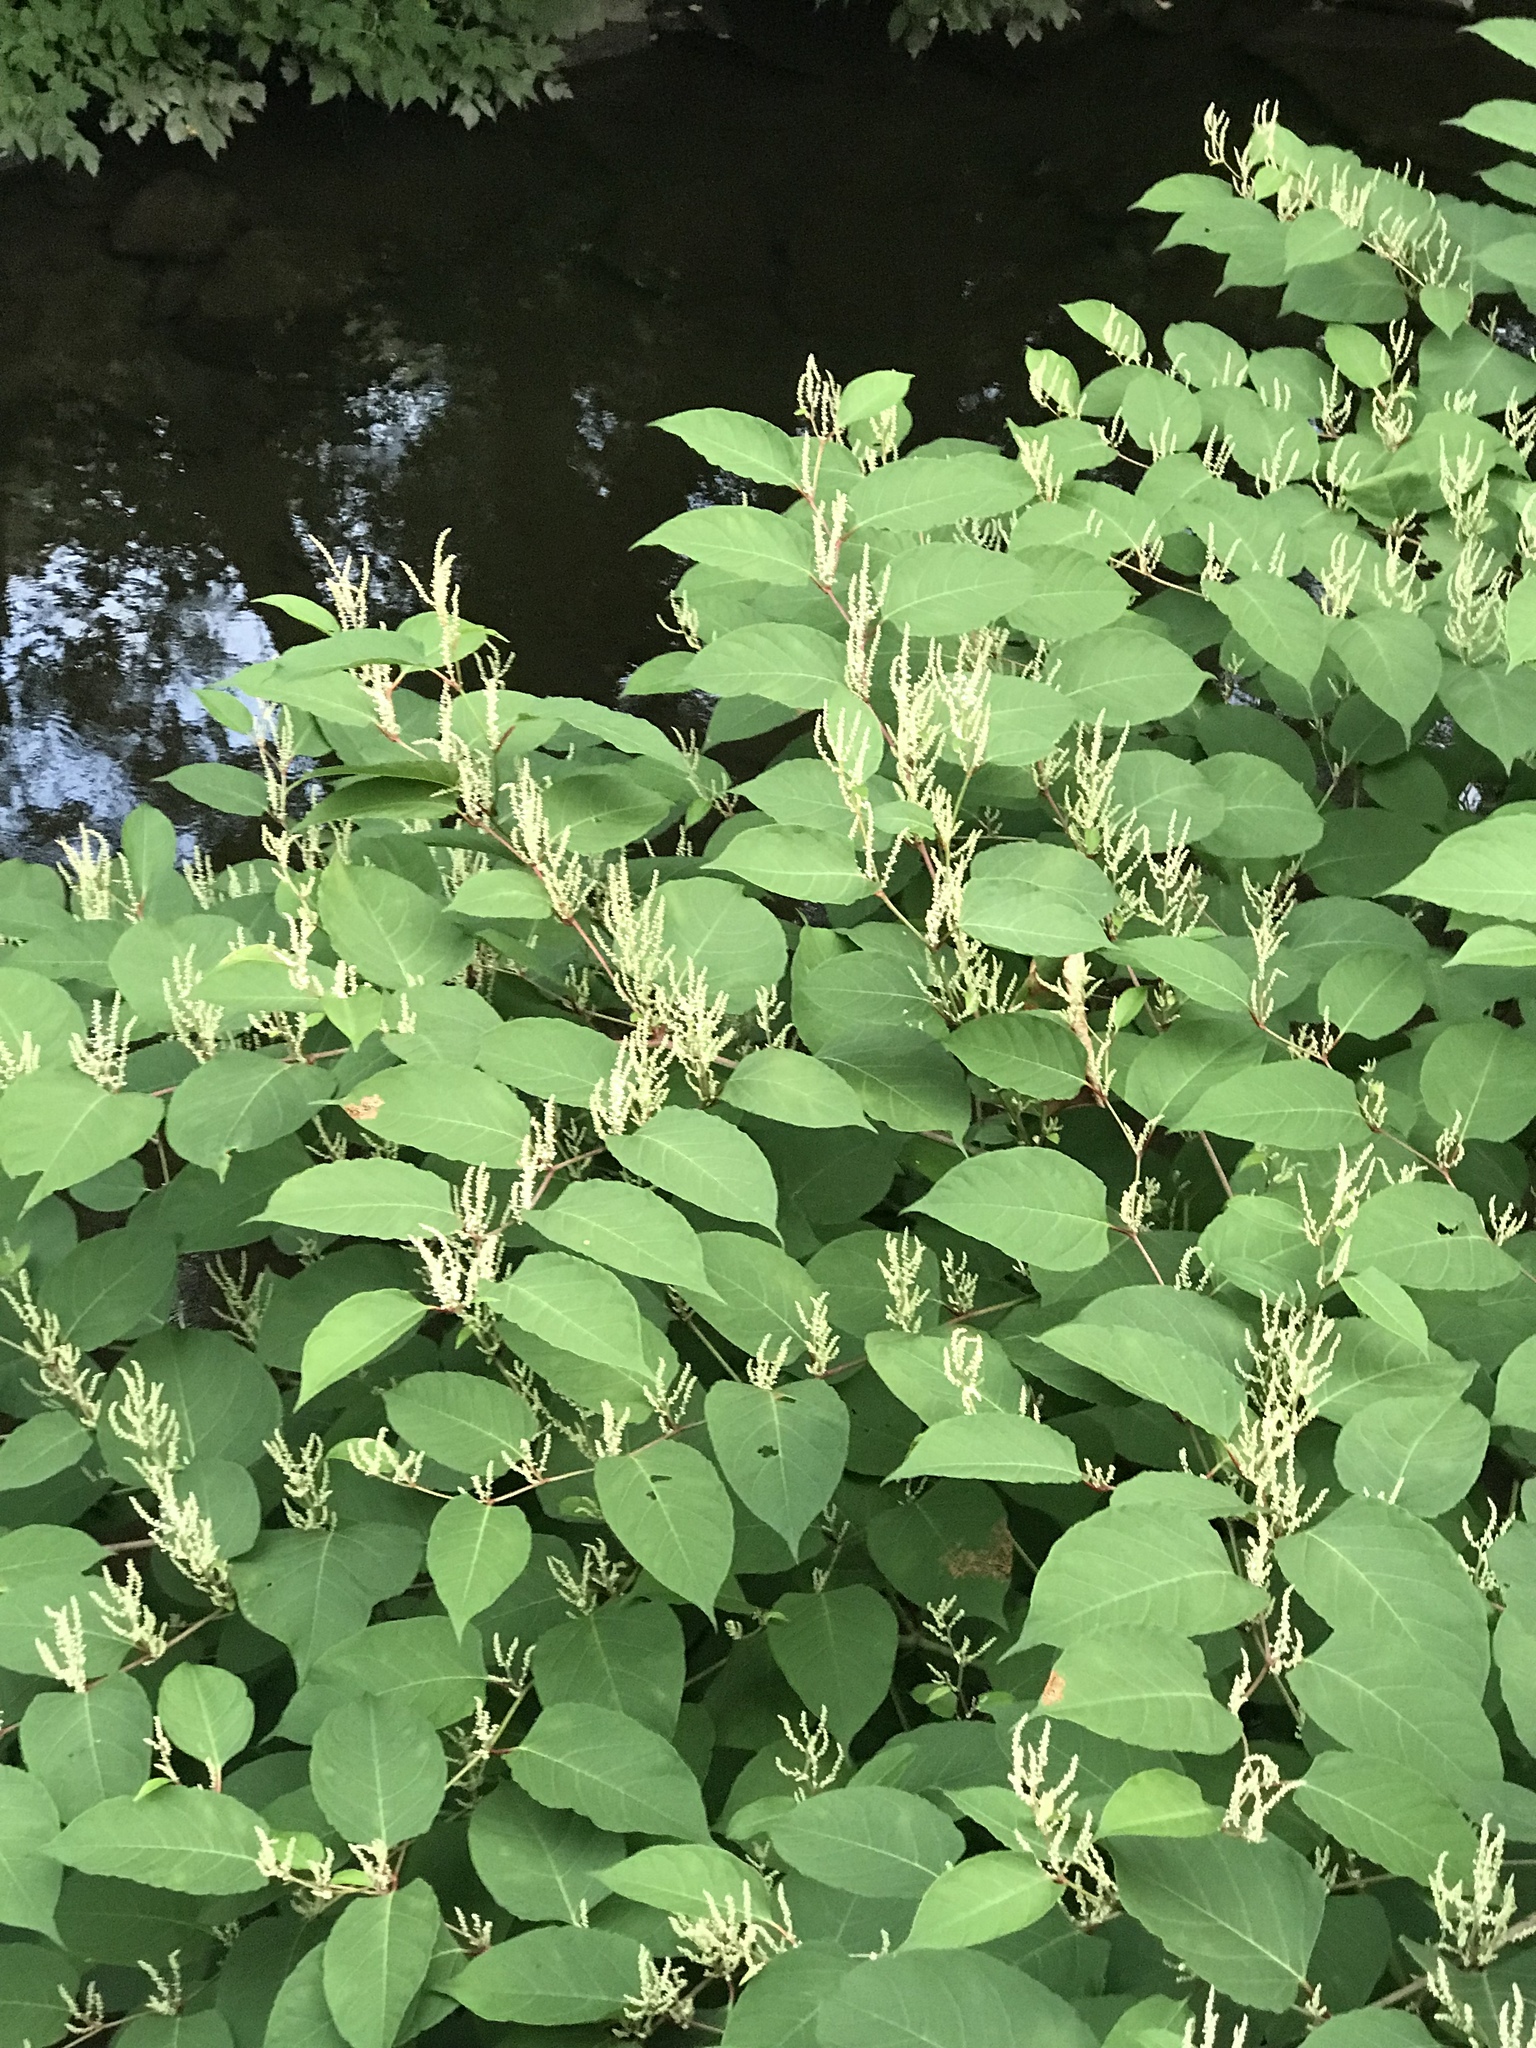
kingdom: Plantae
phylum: Tracheophyta
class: Magnoliopsida
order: Caryophyllales
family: Polygonaceae
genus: Reynoutria
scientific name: Reynoutria japonica
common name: Japanese knotweed
